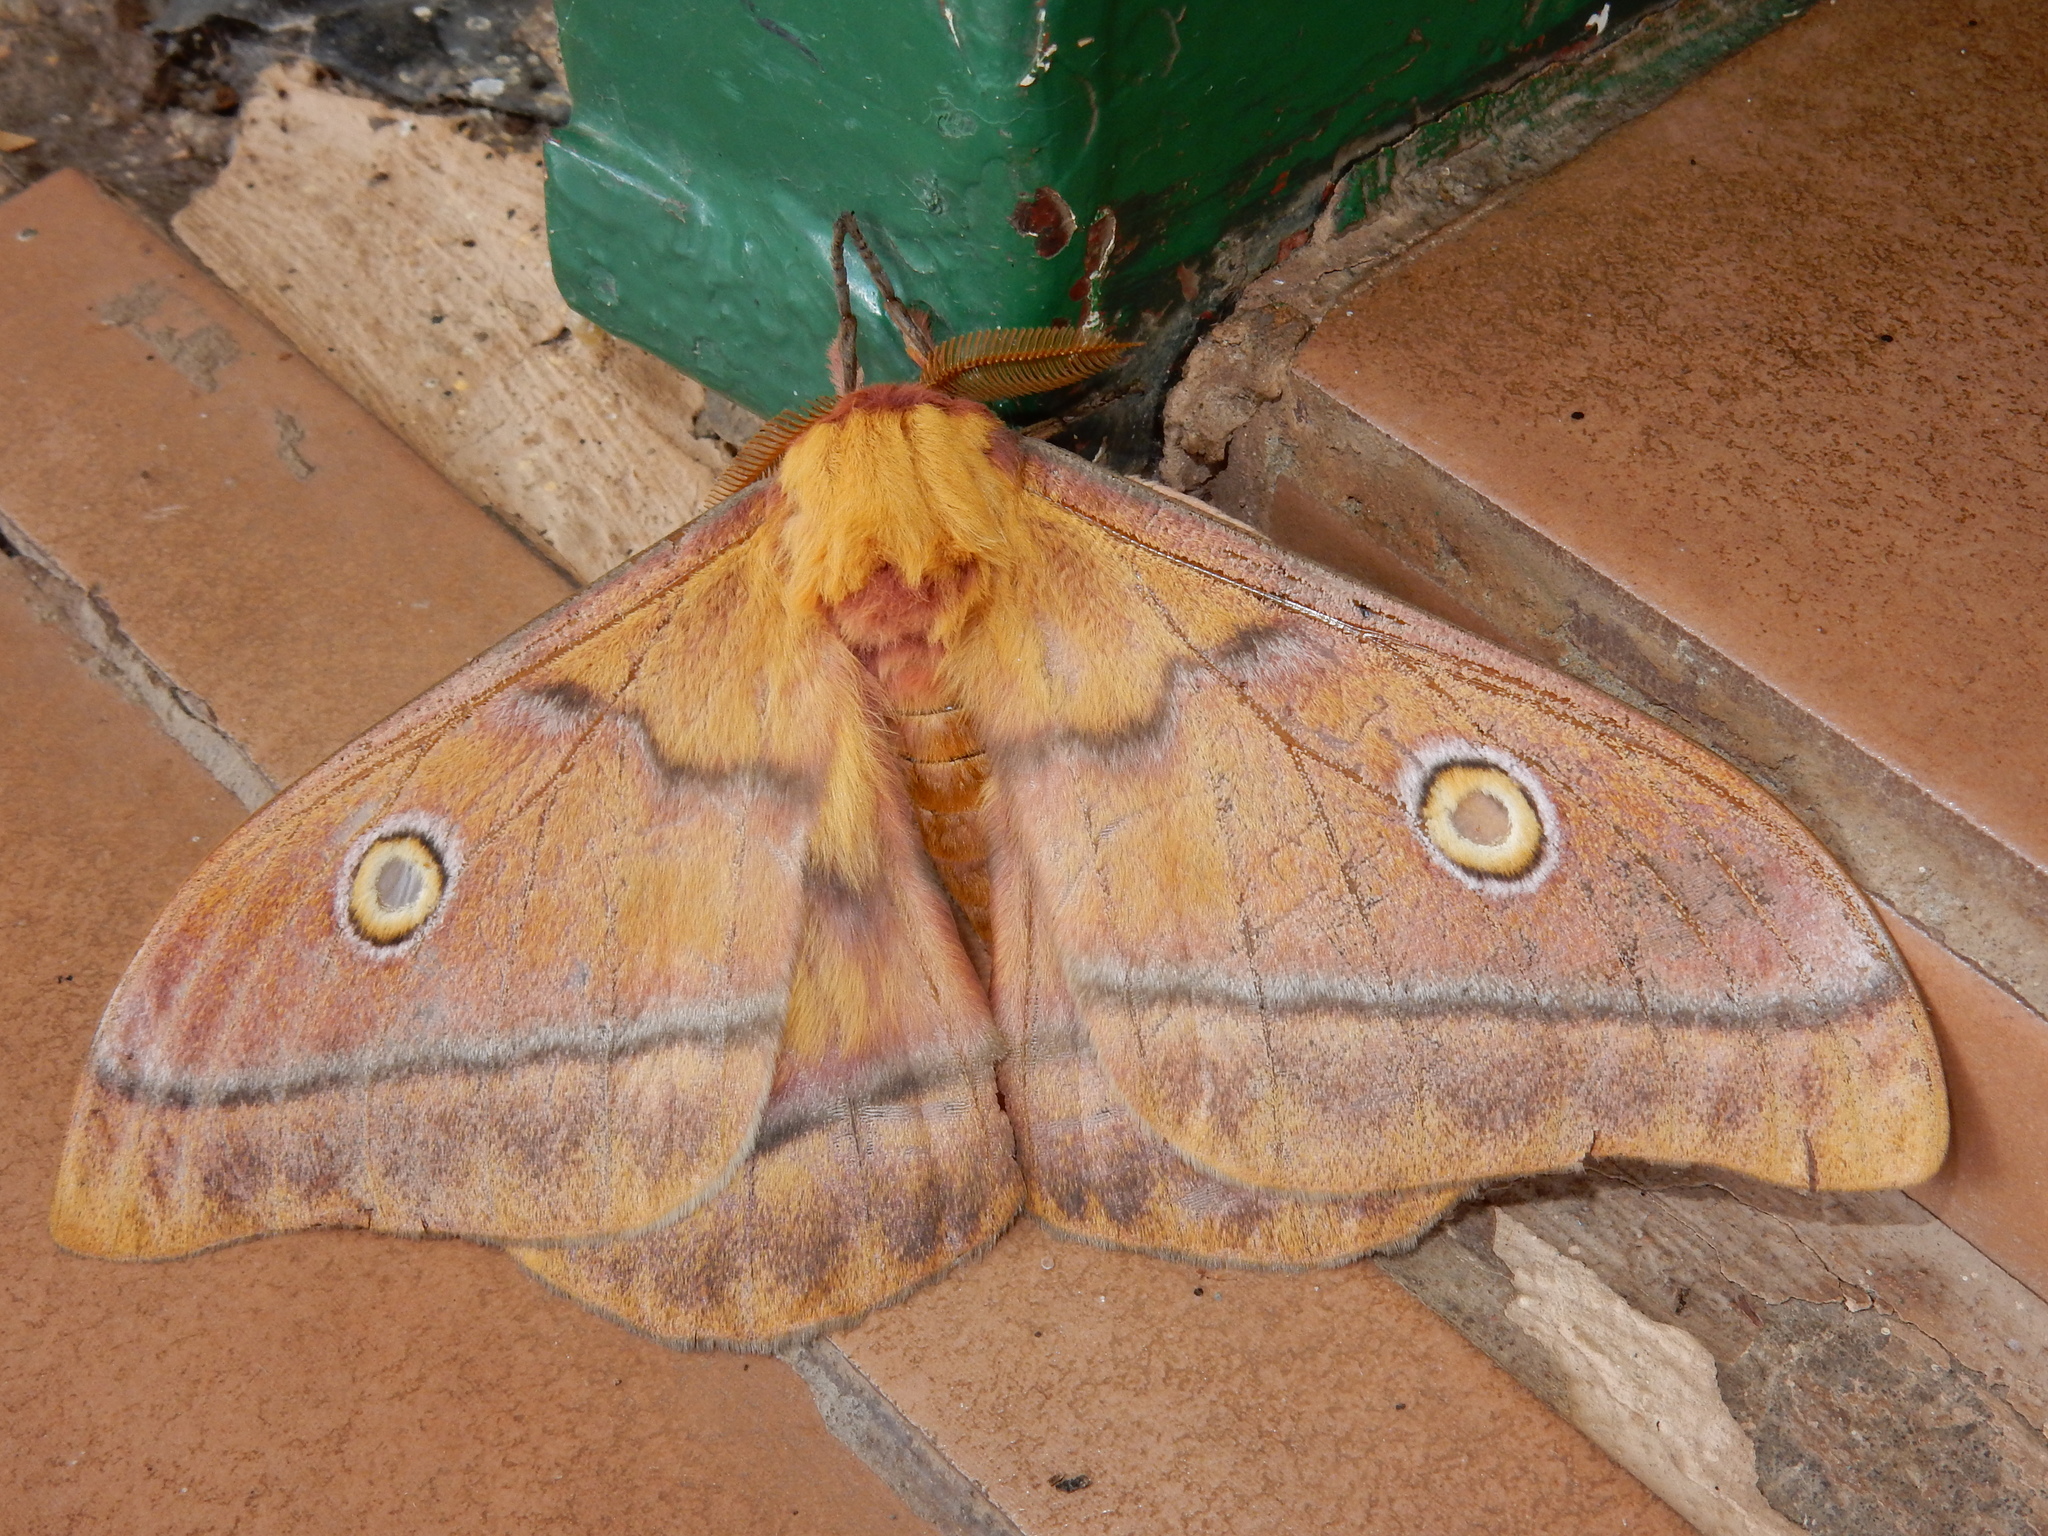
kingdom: Animalia
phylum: Arthropoda
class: Insecta
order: Lepidoptera
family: Saturniidae
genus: Nudaurelia
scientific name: Nudaurelia cytherea
